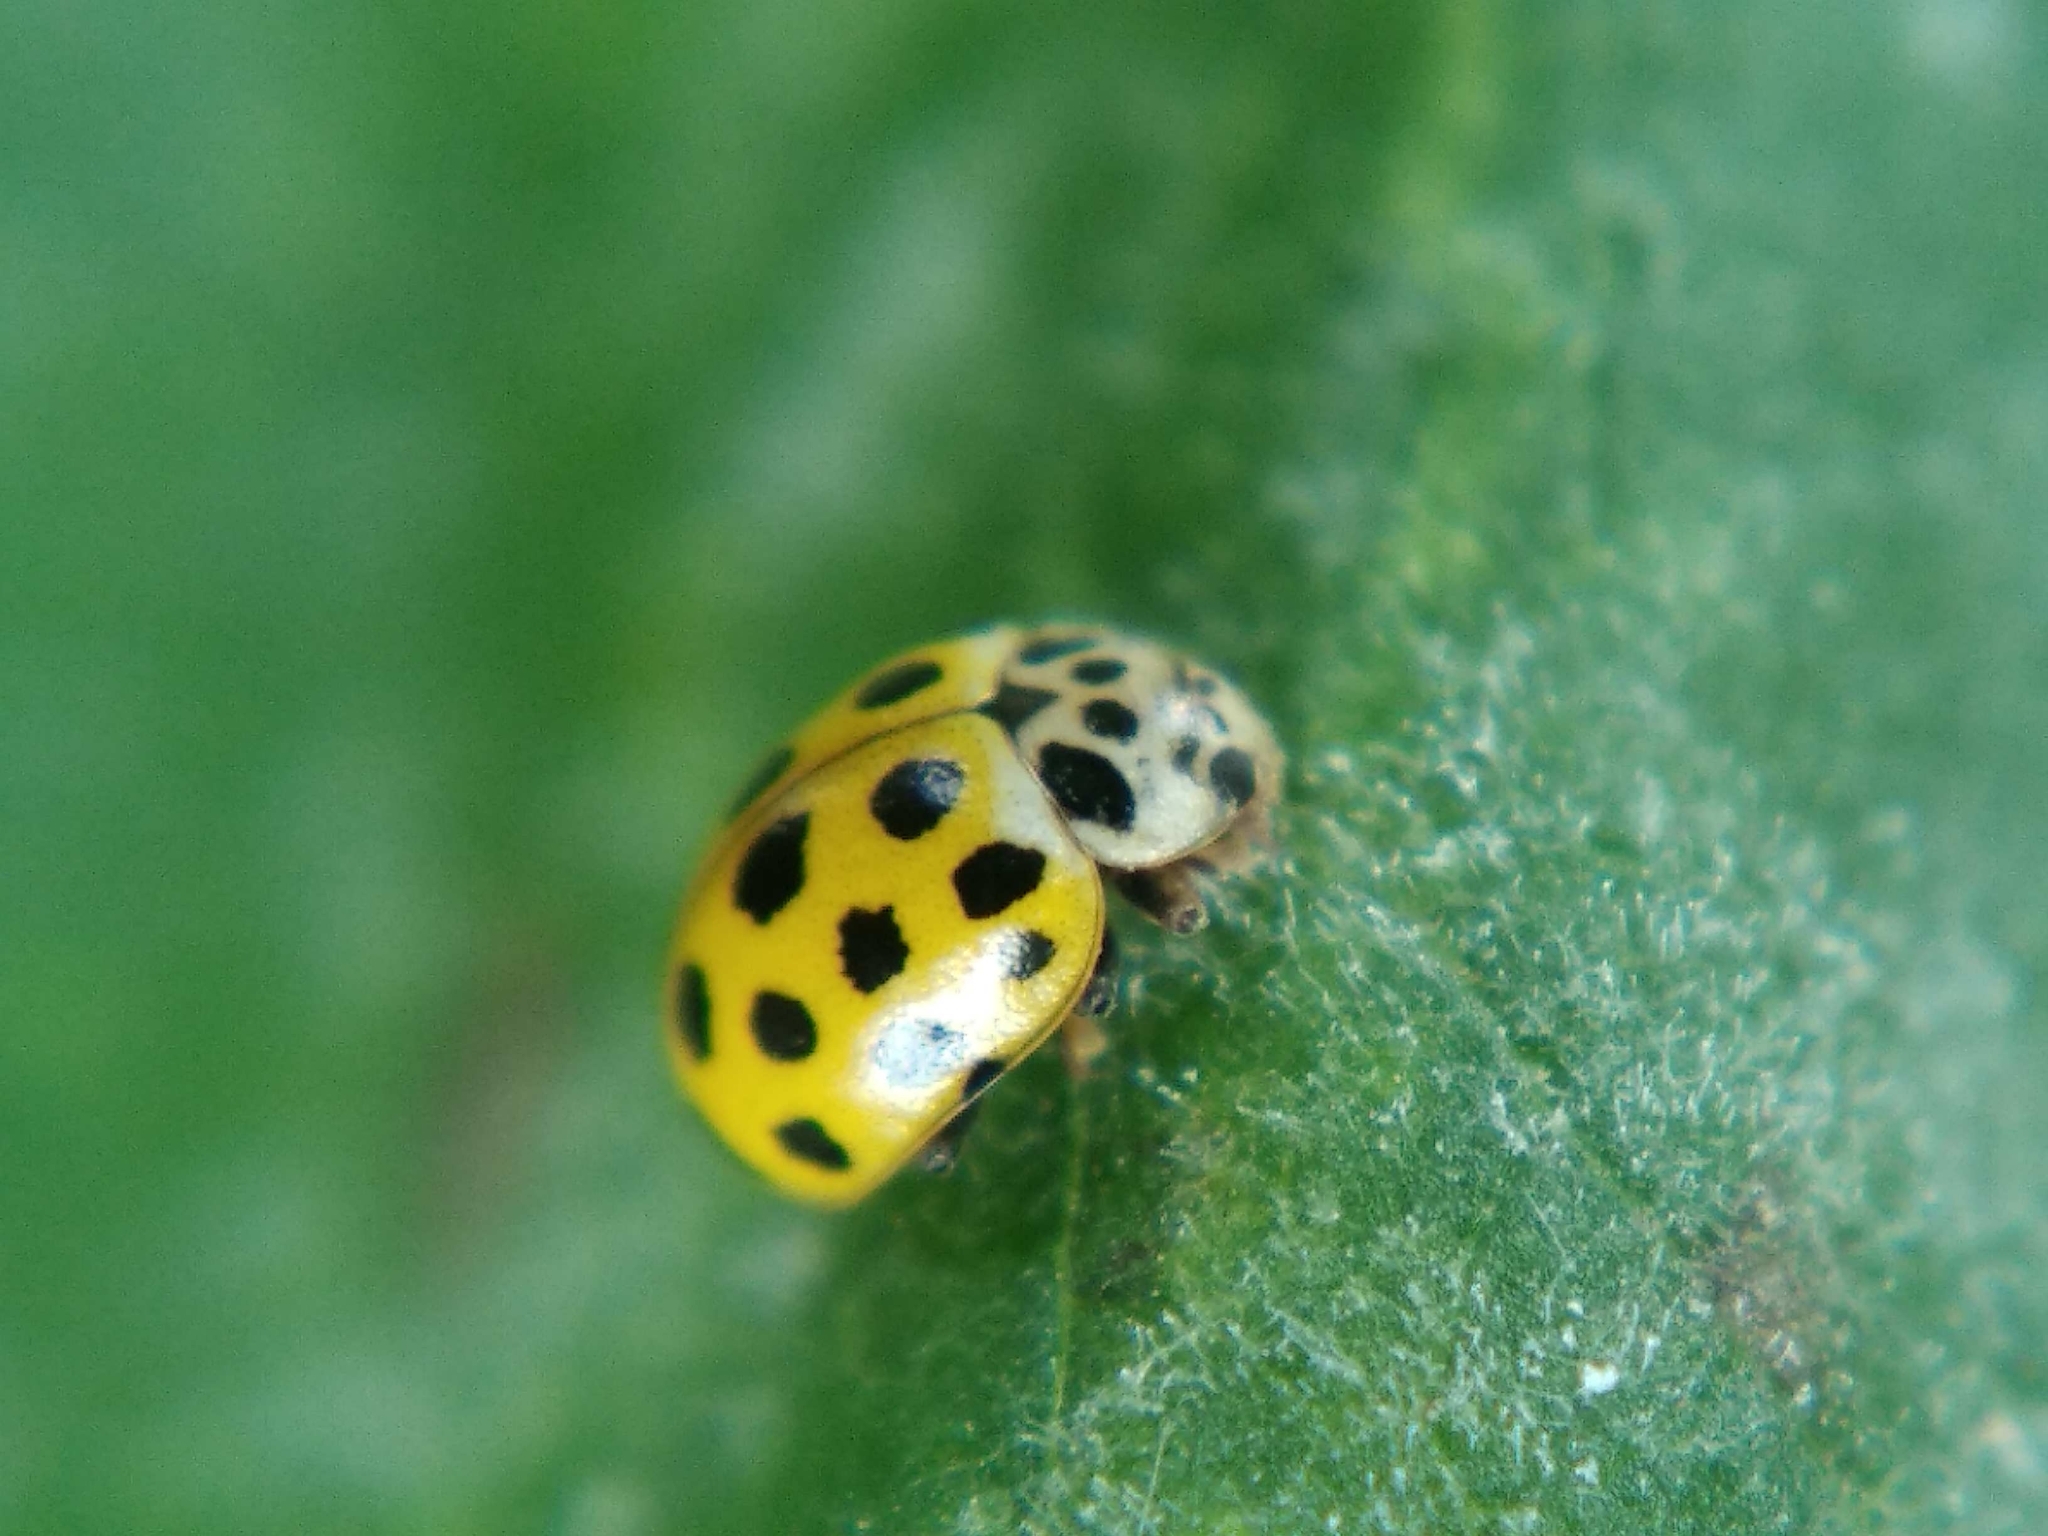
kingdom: Animalia
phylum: Arthropoda
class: Insecta
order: Coleoptera
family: Coccinellidae
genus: Psyllobora
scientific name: Psyllobora vigintiduopunctata
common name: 22-spot ladybird
